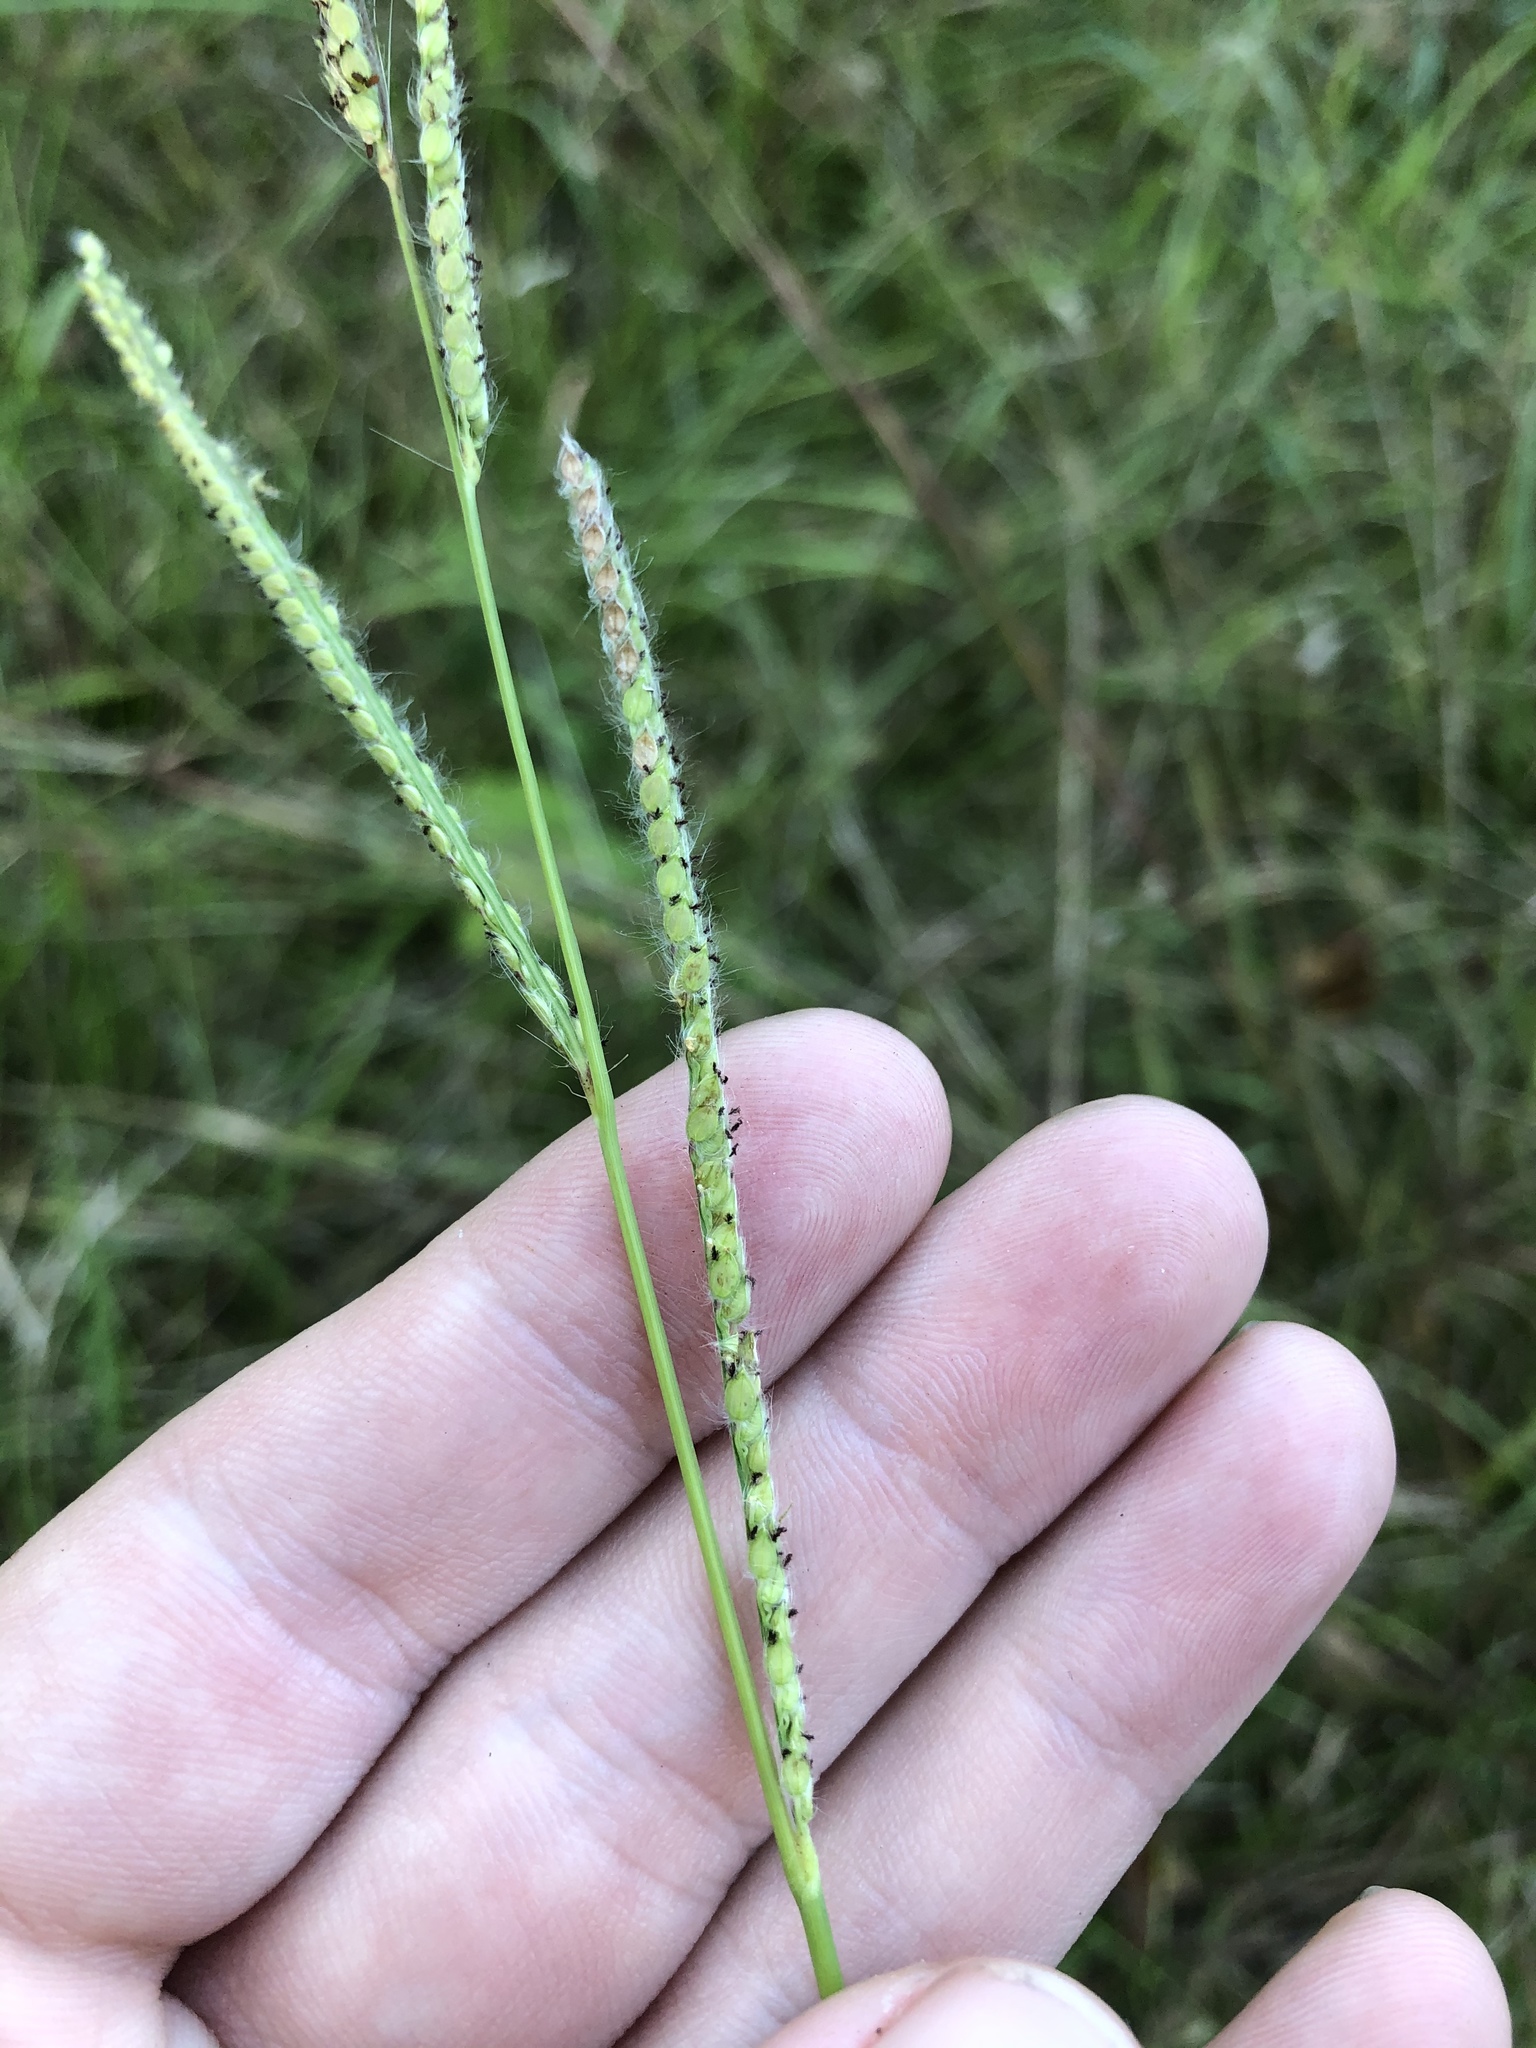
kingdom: Plantae
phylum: Tracheophyta
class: Liliopsida
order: Poales
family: Poaceae
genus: Paspalum
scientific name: Paspalum urvillei
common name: Vasey's grass
